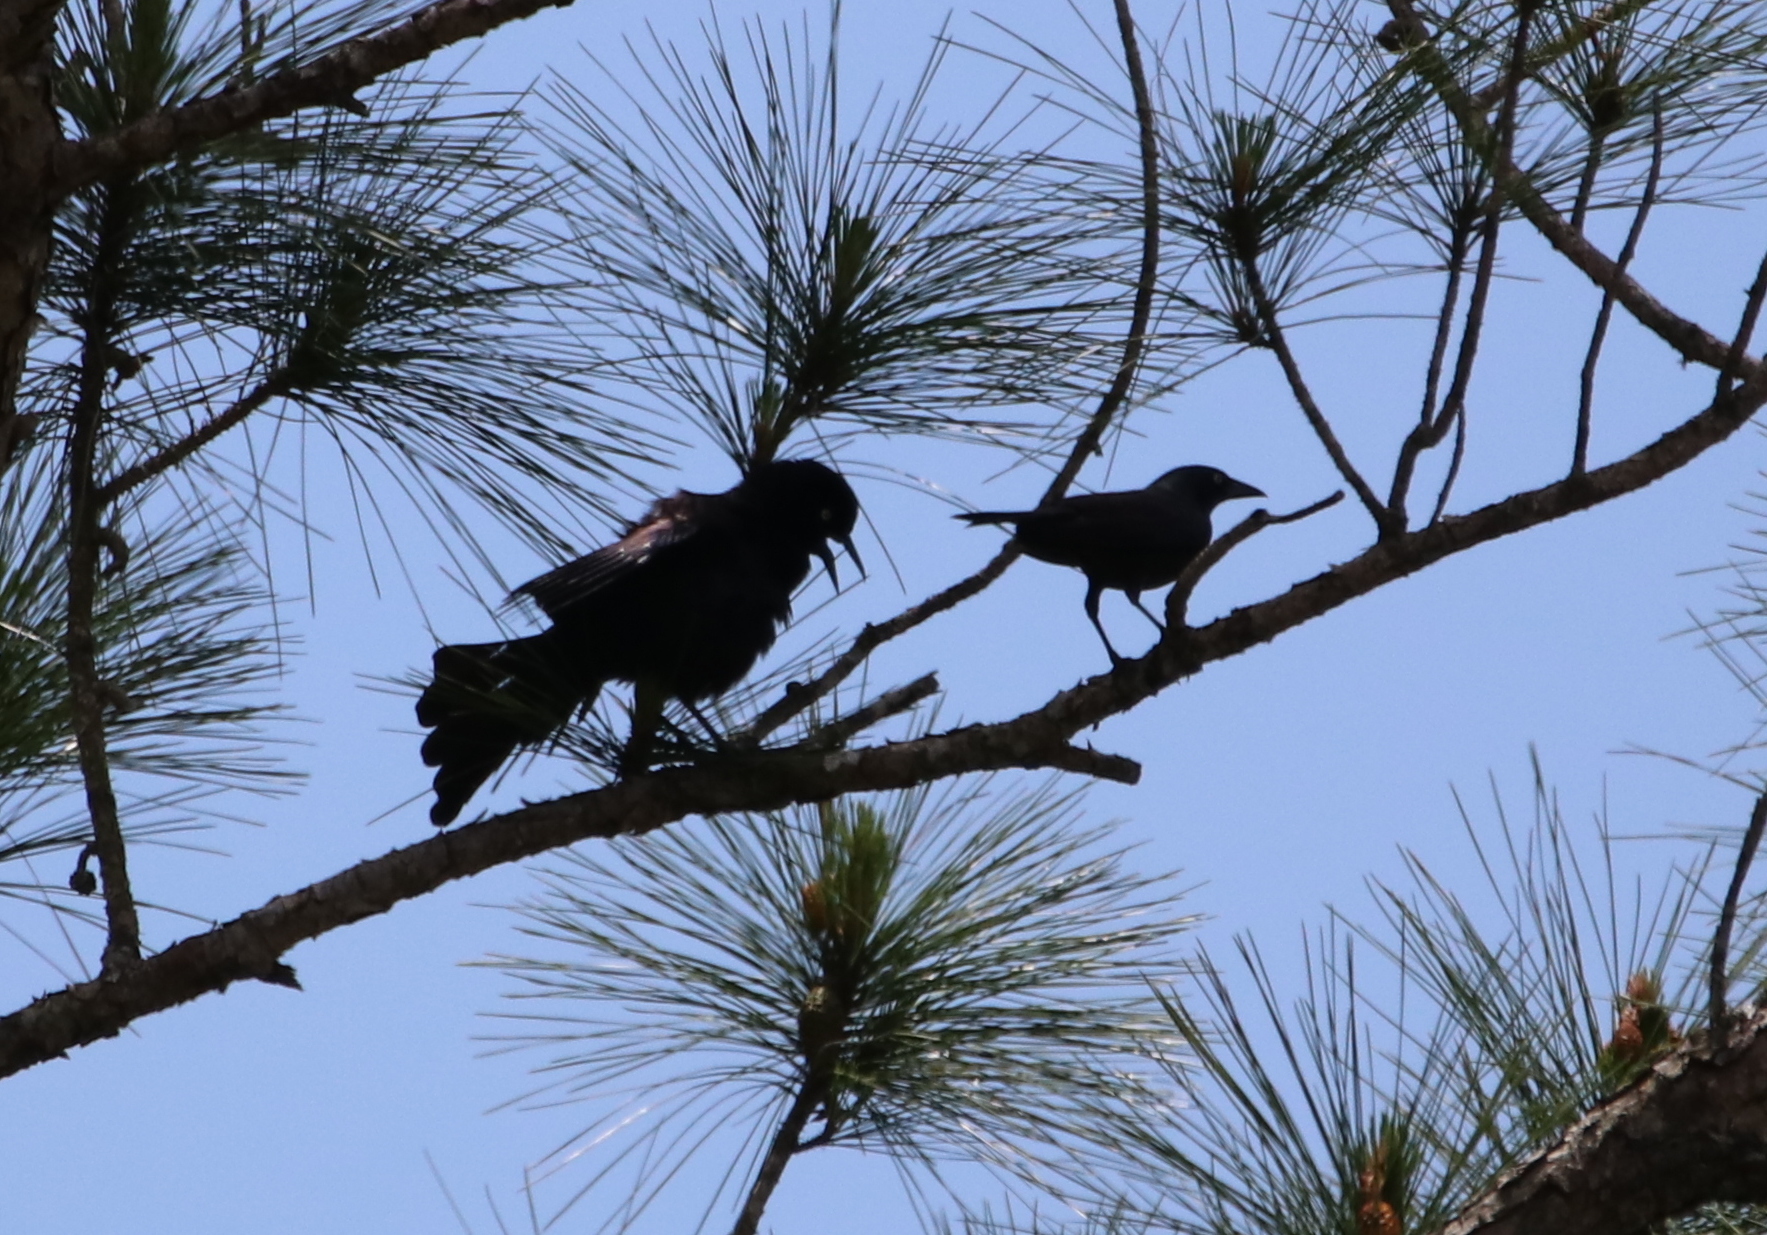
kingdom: Animalia
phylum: Chordata
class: Aves
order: Passeriformes
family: Icteridae
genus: Quiscalus
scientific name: Quiscalus quiscula
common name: Common grackle
